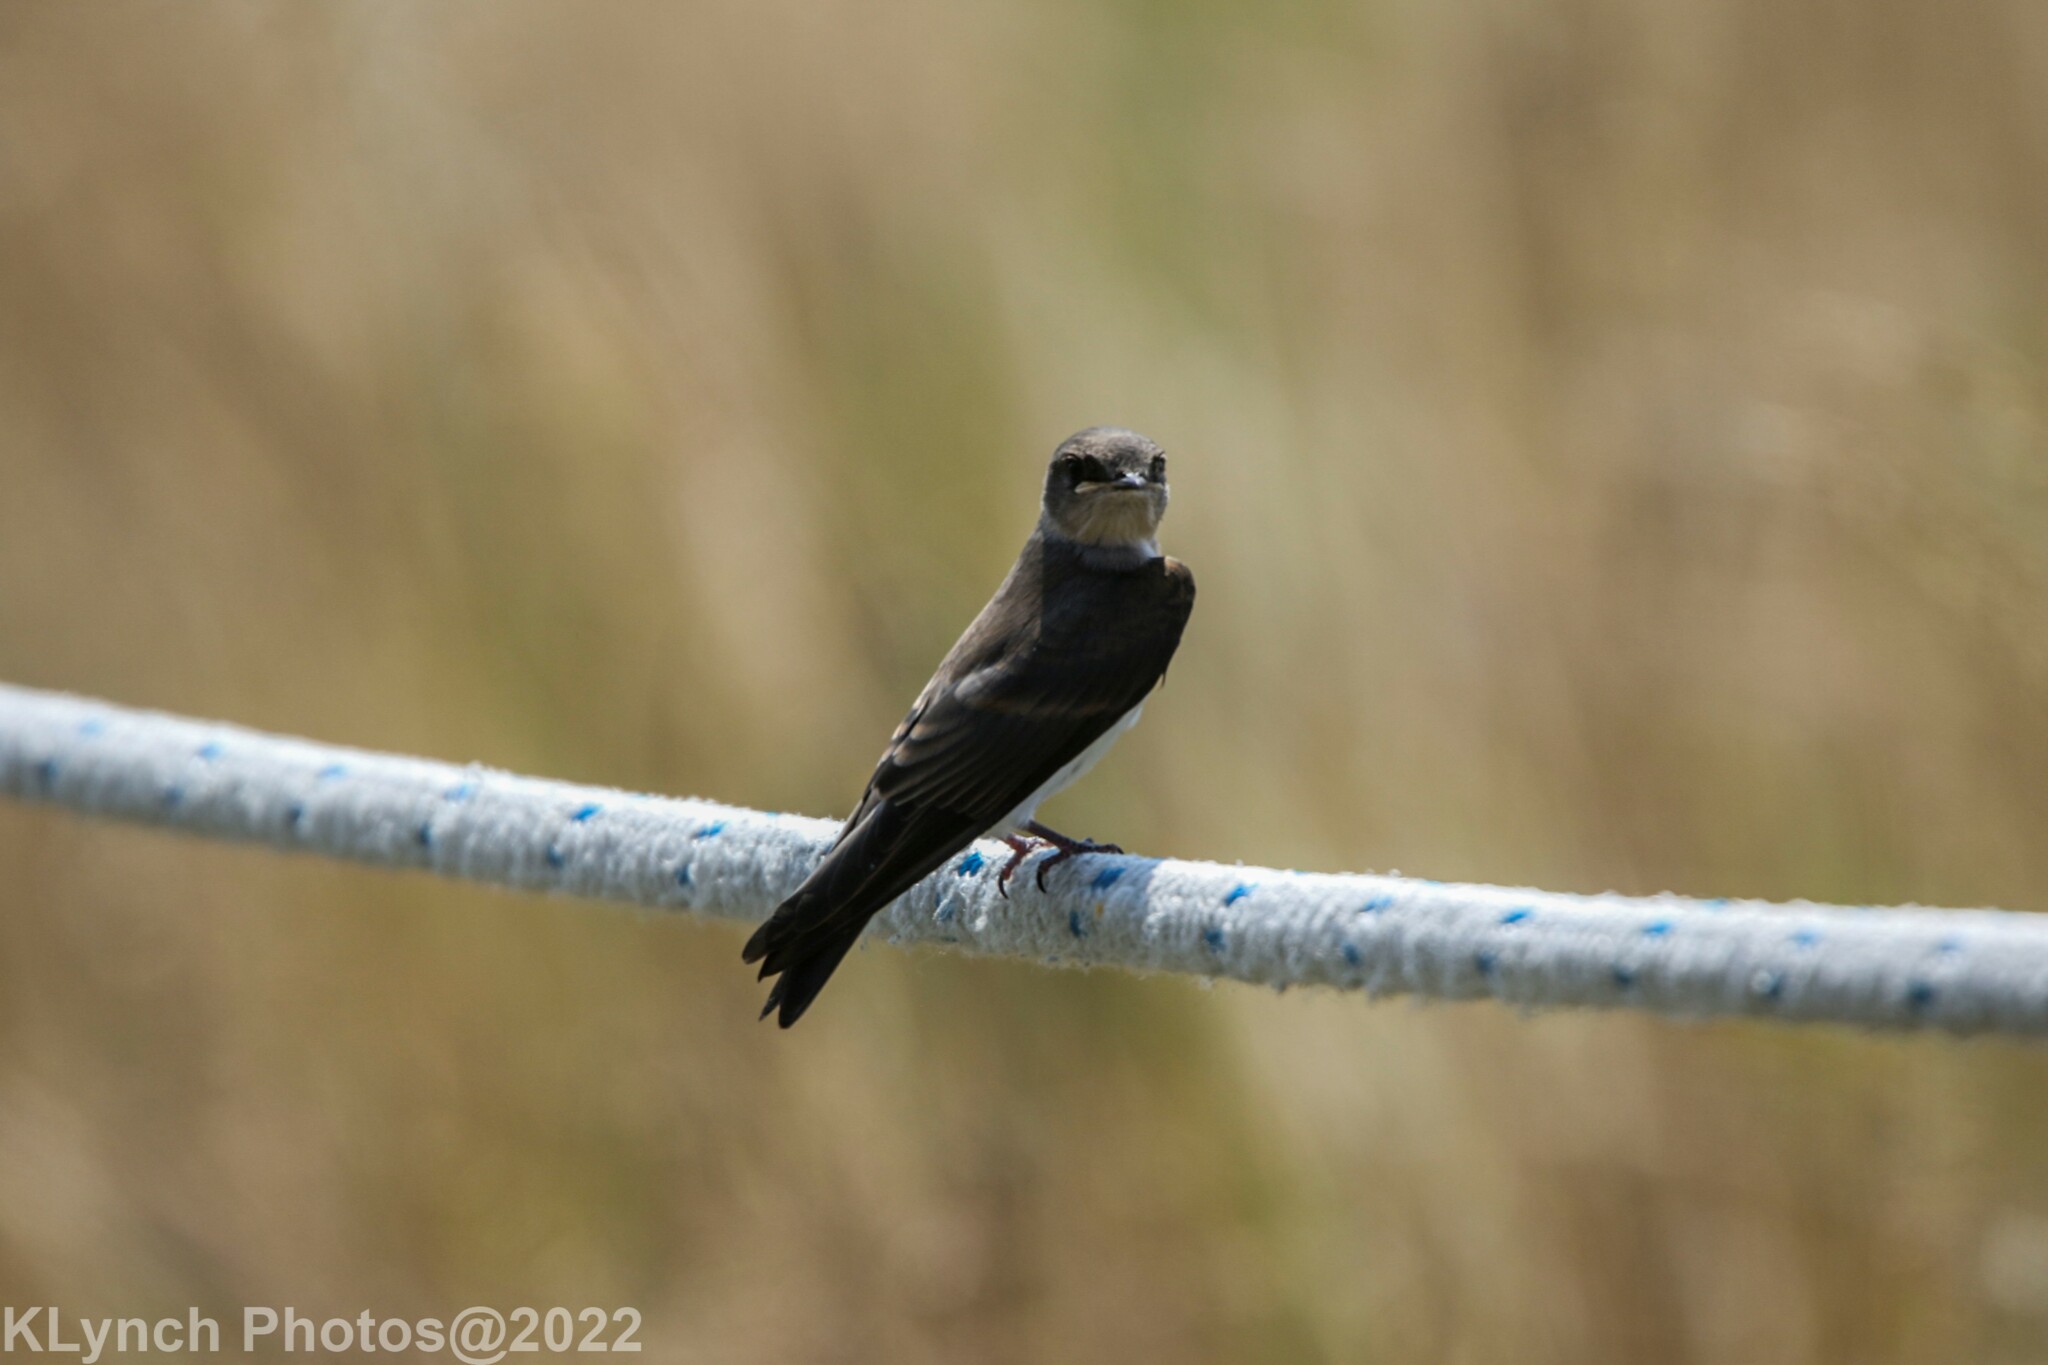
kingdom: Animalia
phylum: Chordata
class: Aves
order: Passeriformes
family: Hirundinidae
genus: Tachycineta
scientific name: Tachycineta bicolor
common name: Tree swallow
